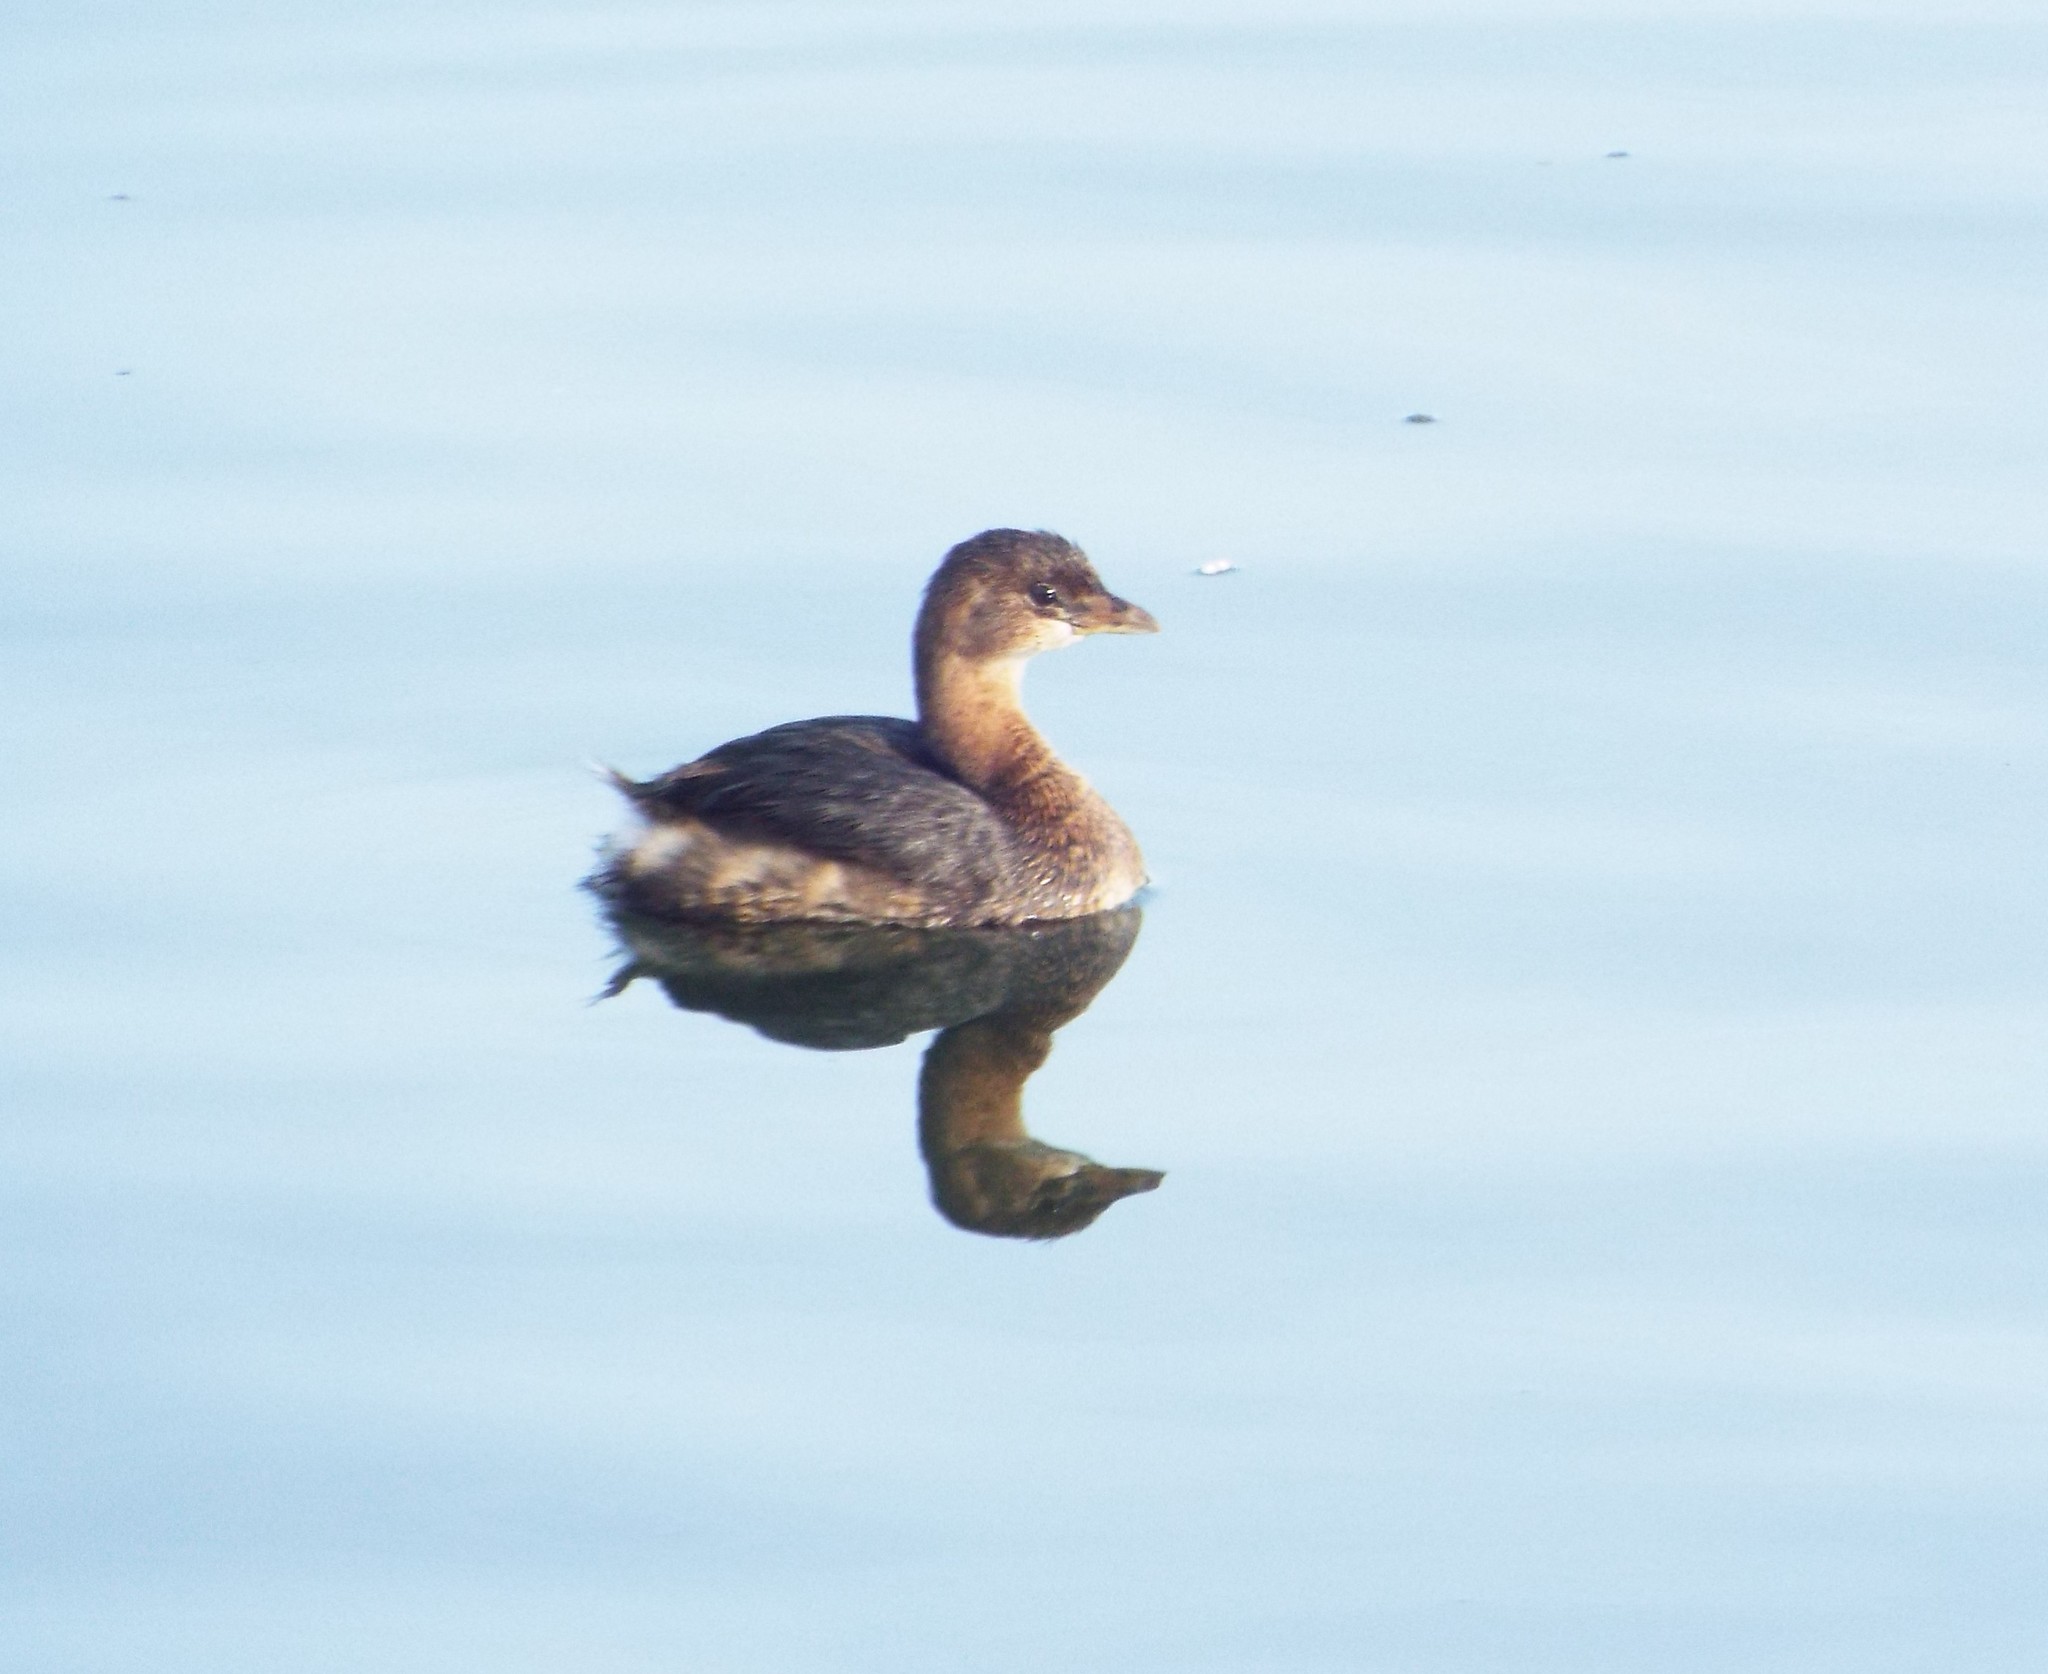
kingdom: Animalia
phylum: Chordata
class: Aves
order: Podicipediformes
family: Podicipedidae
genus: Podilymbus
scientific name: Podilymbus podiceps
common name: Pied-billed grebe
